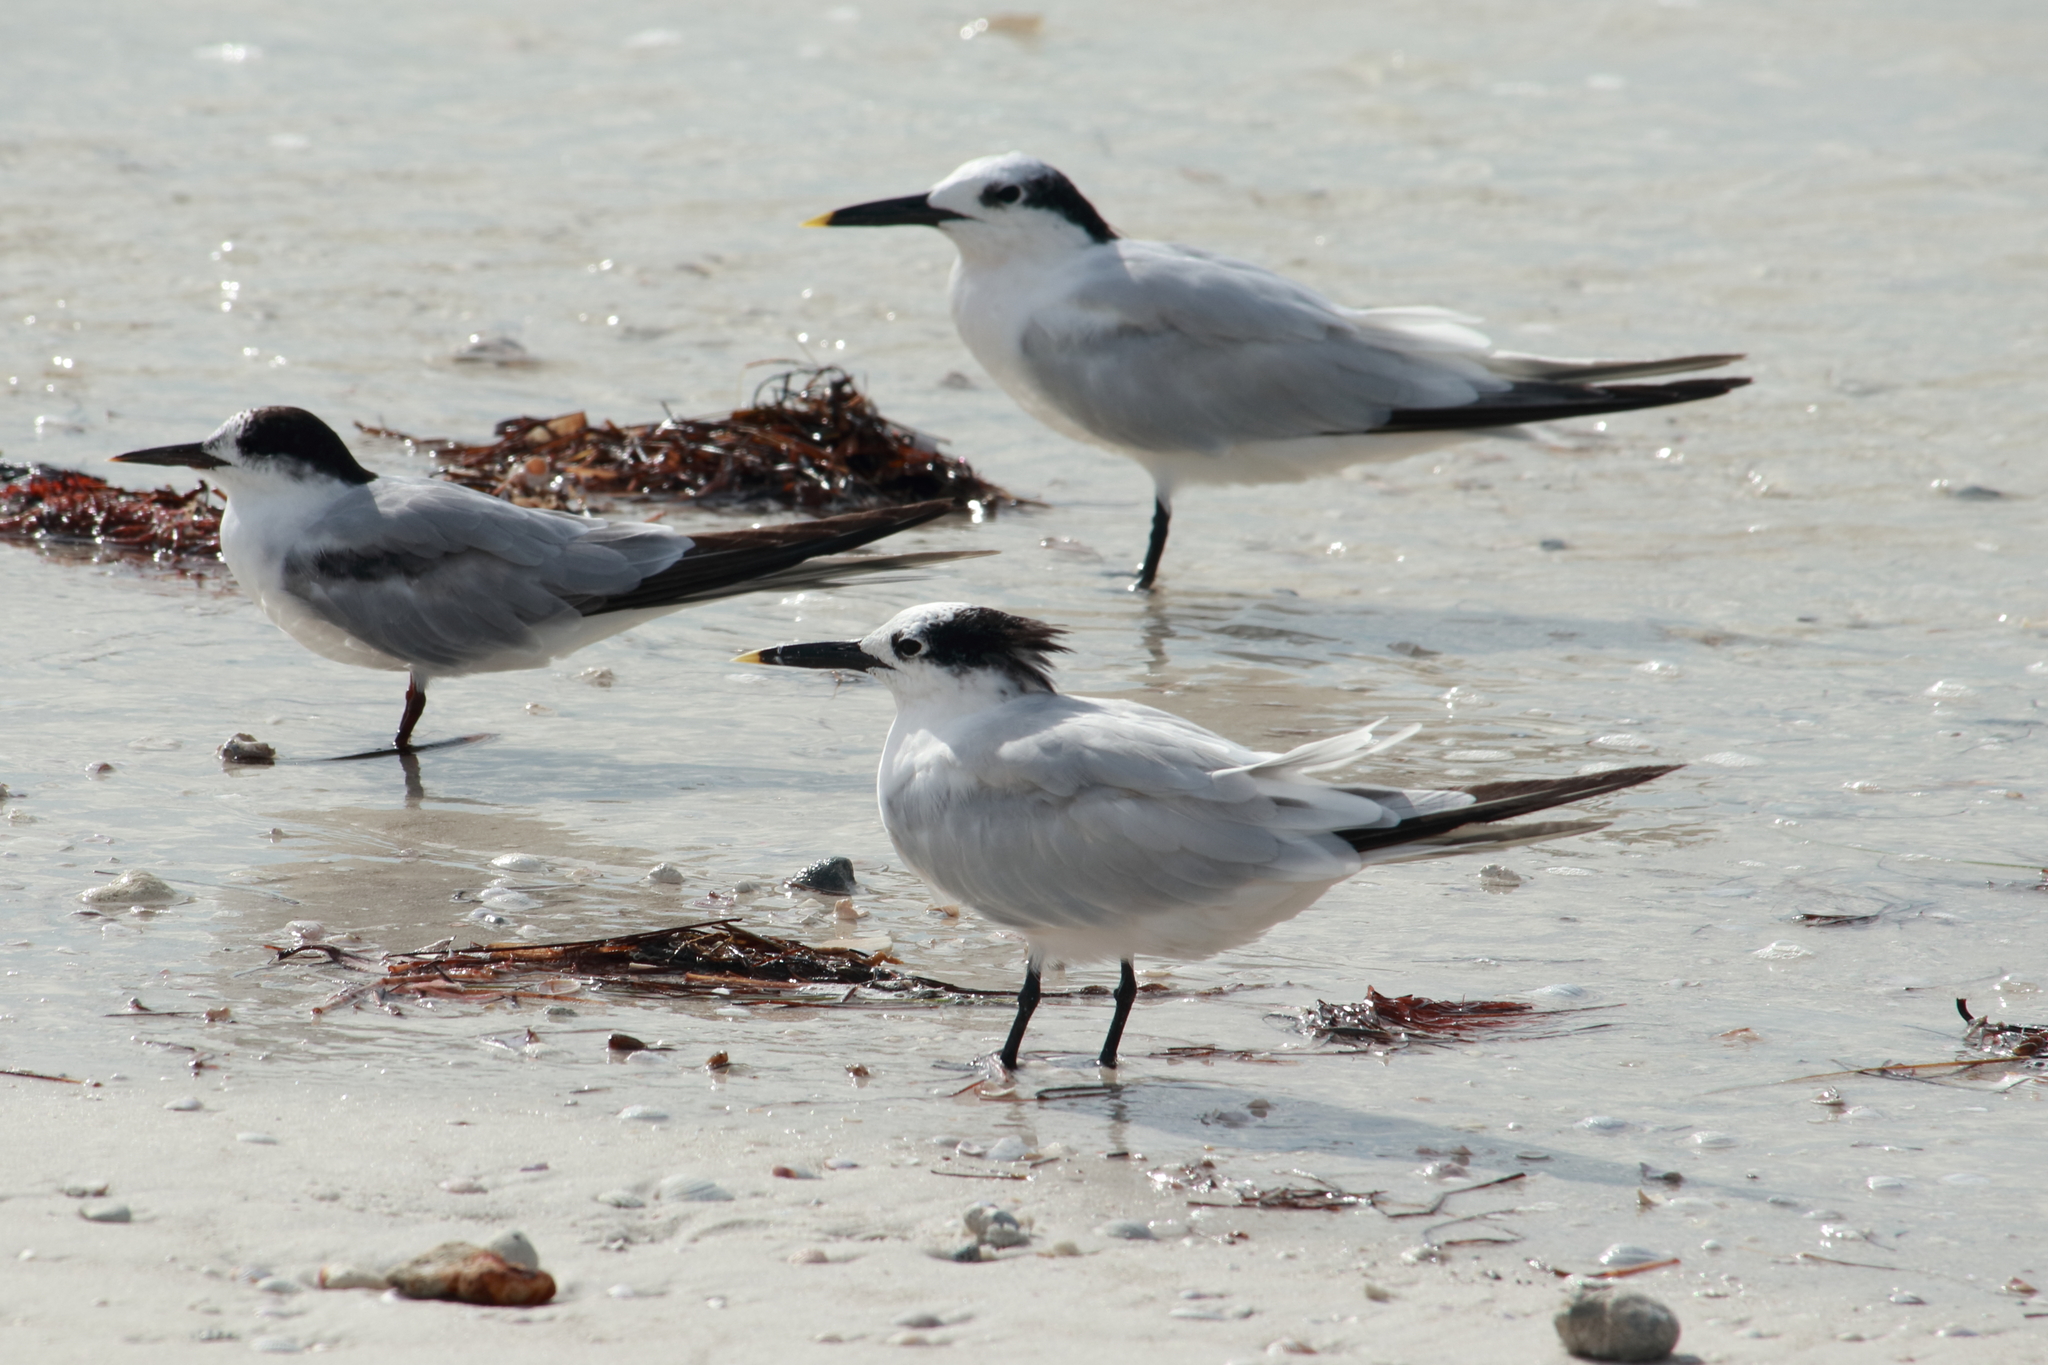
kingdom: Animalia
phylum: Chordata
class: Aves
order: Charadriiformes
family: Laridae
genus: Thalasseus
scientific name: Thalasseus sandvicensis
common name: Sandwich tern
